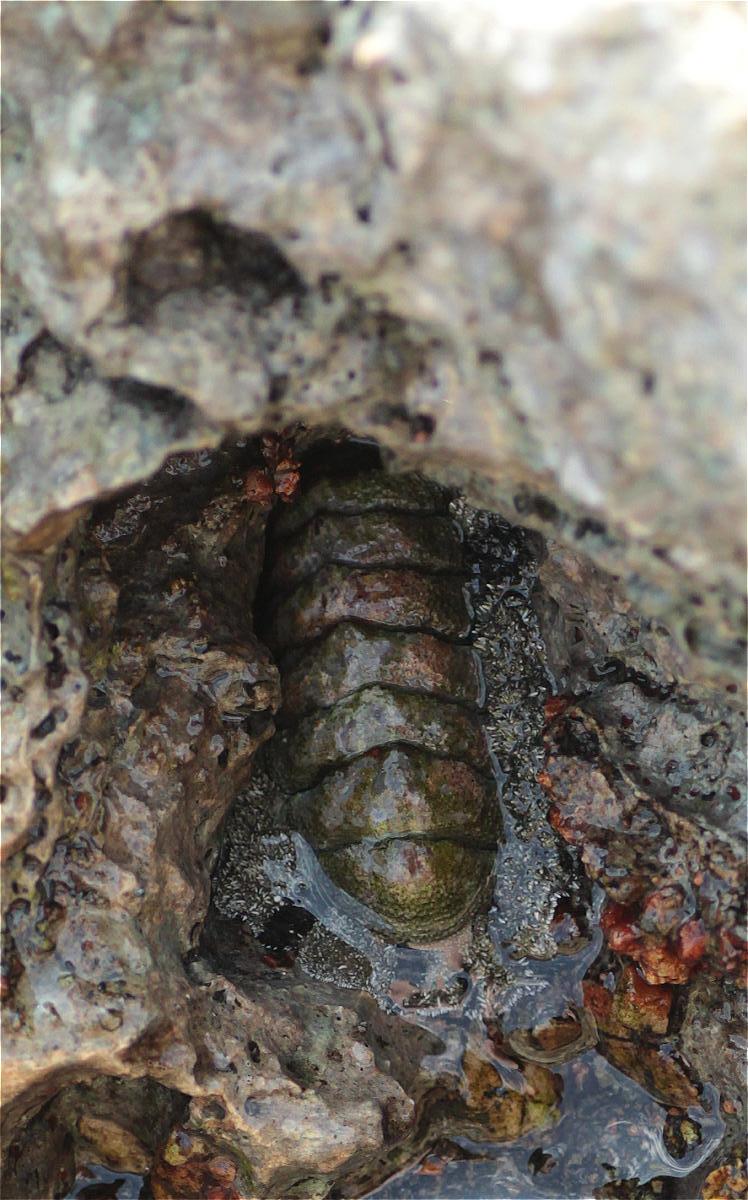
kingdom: Animalia
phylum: Mollusca
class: Polyplacophora
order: Chitonida
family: Chitonidae
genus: Acanthopleura
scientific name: Acanthopleura vaillantii
